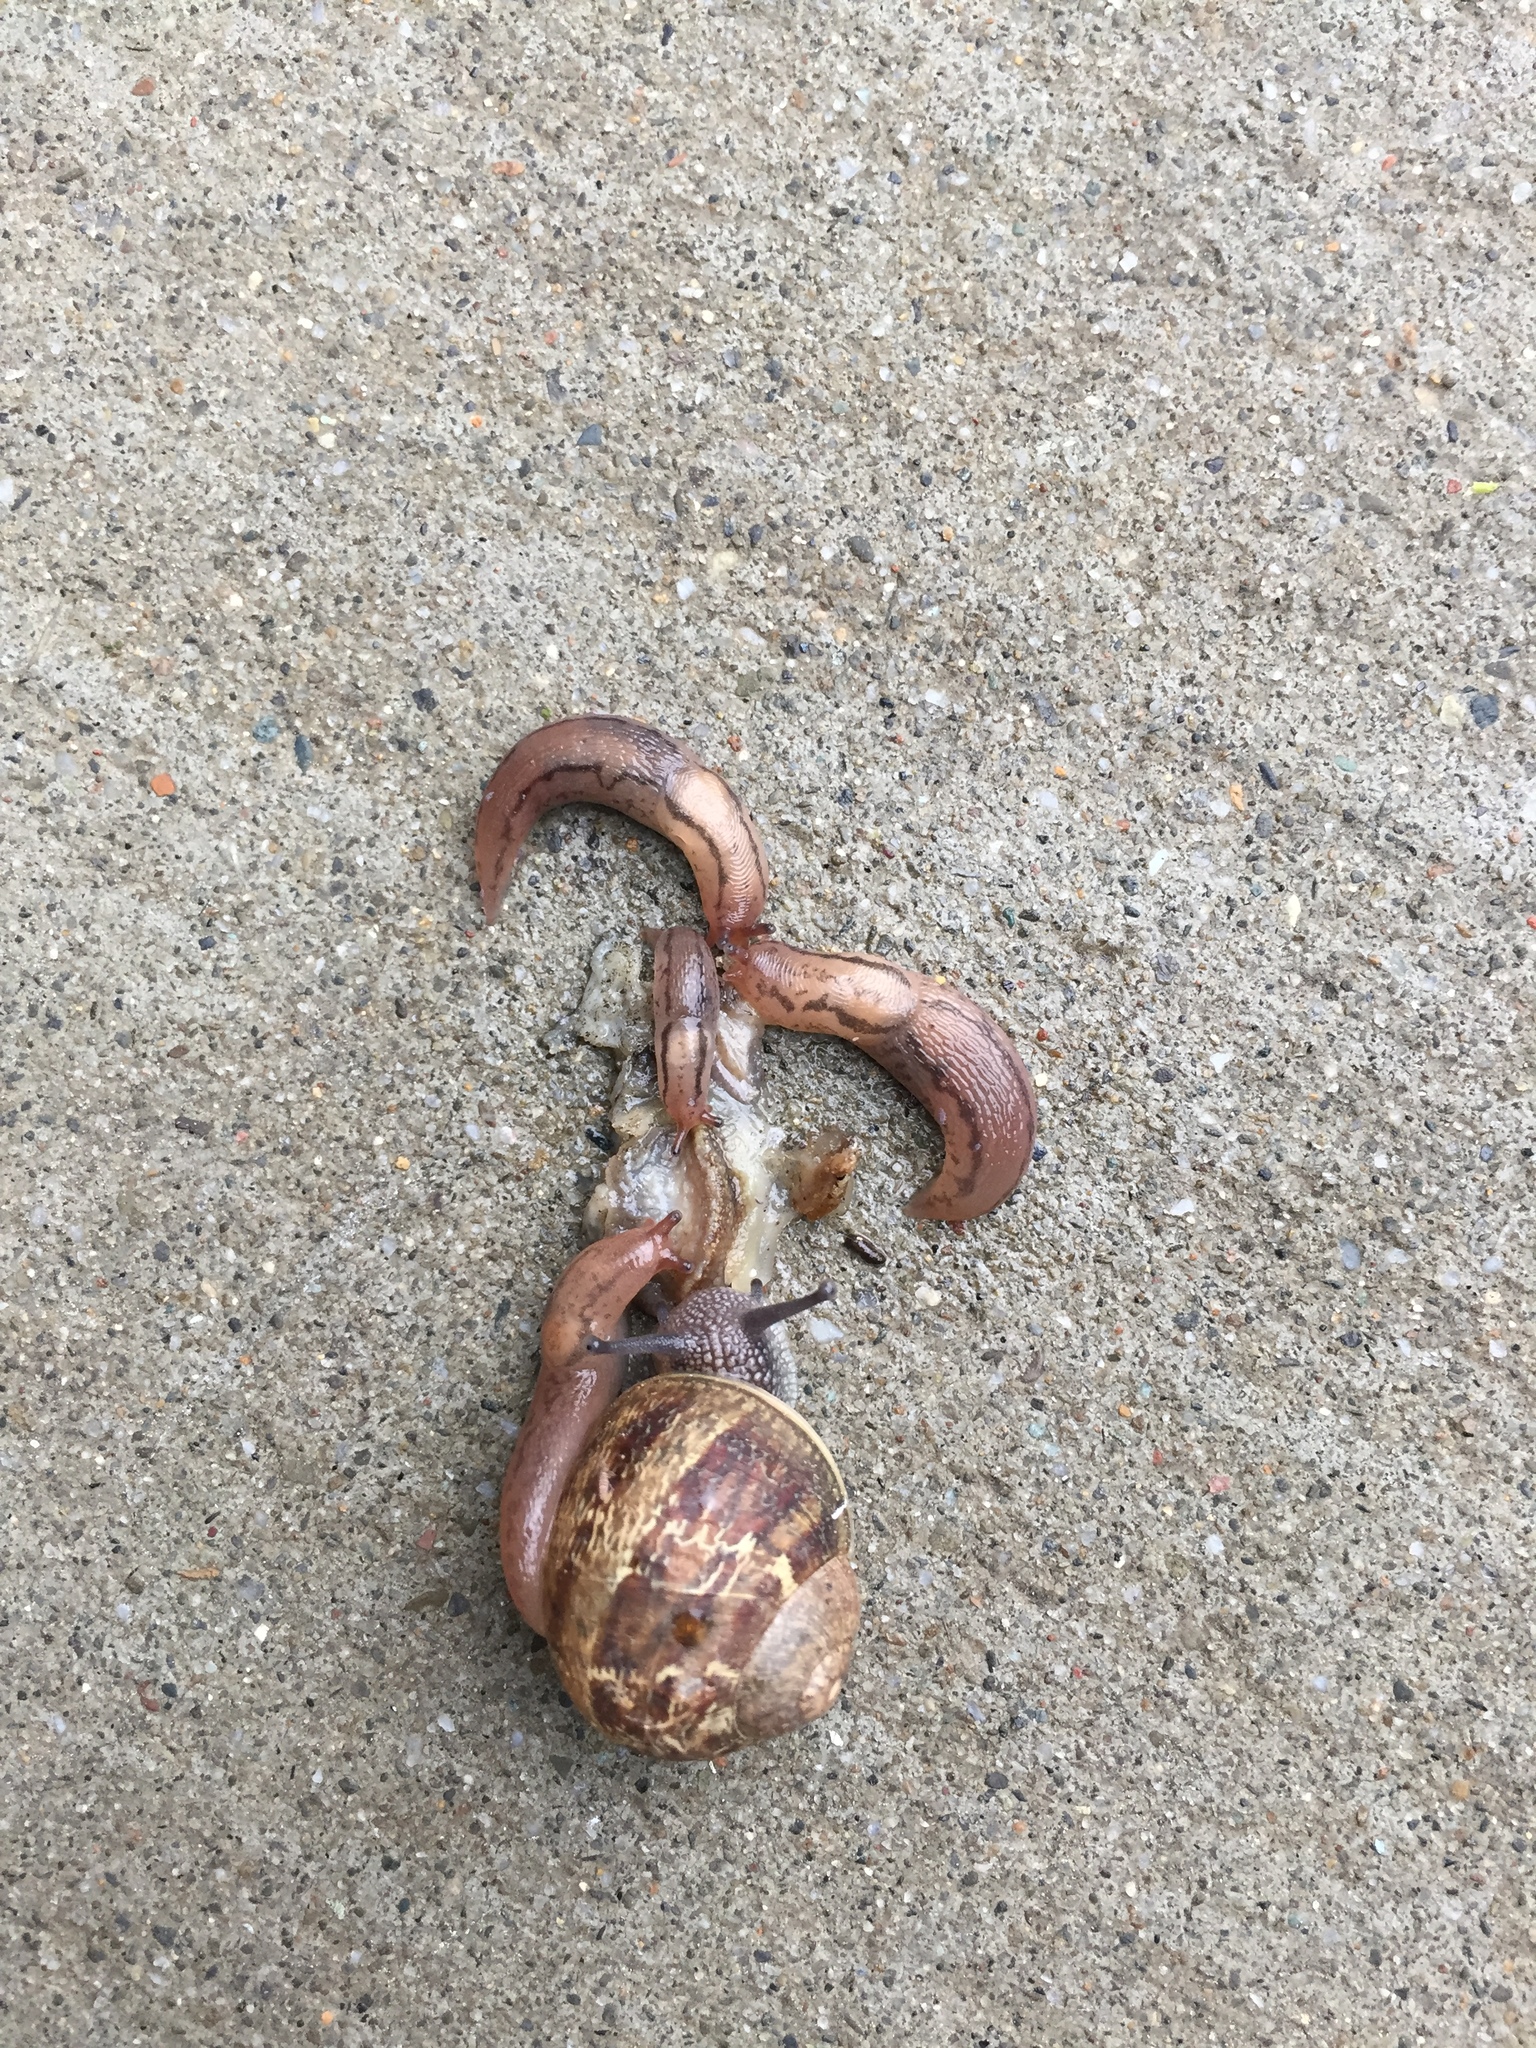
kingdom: Animalia
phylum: Mollusca
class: Gastropoda
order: Stylommatophora
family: Helicidae
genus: Cornu
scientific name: Cornu aspersum
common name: Brown garden snail
